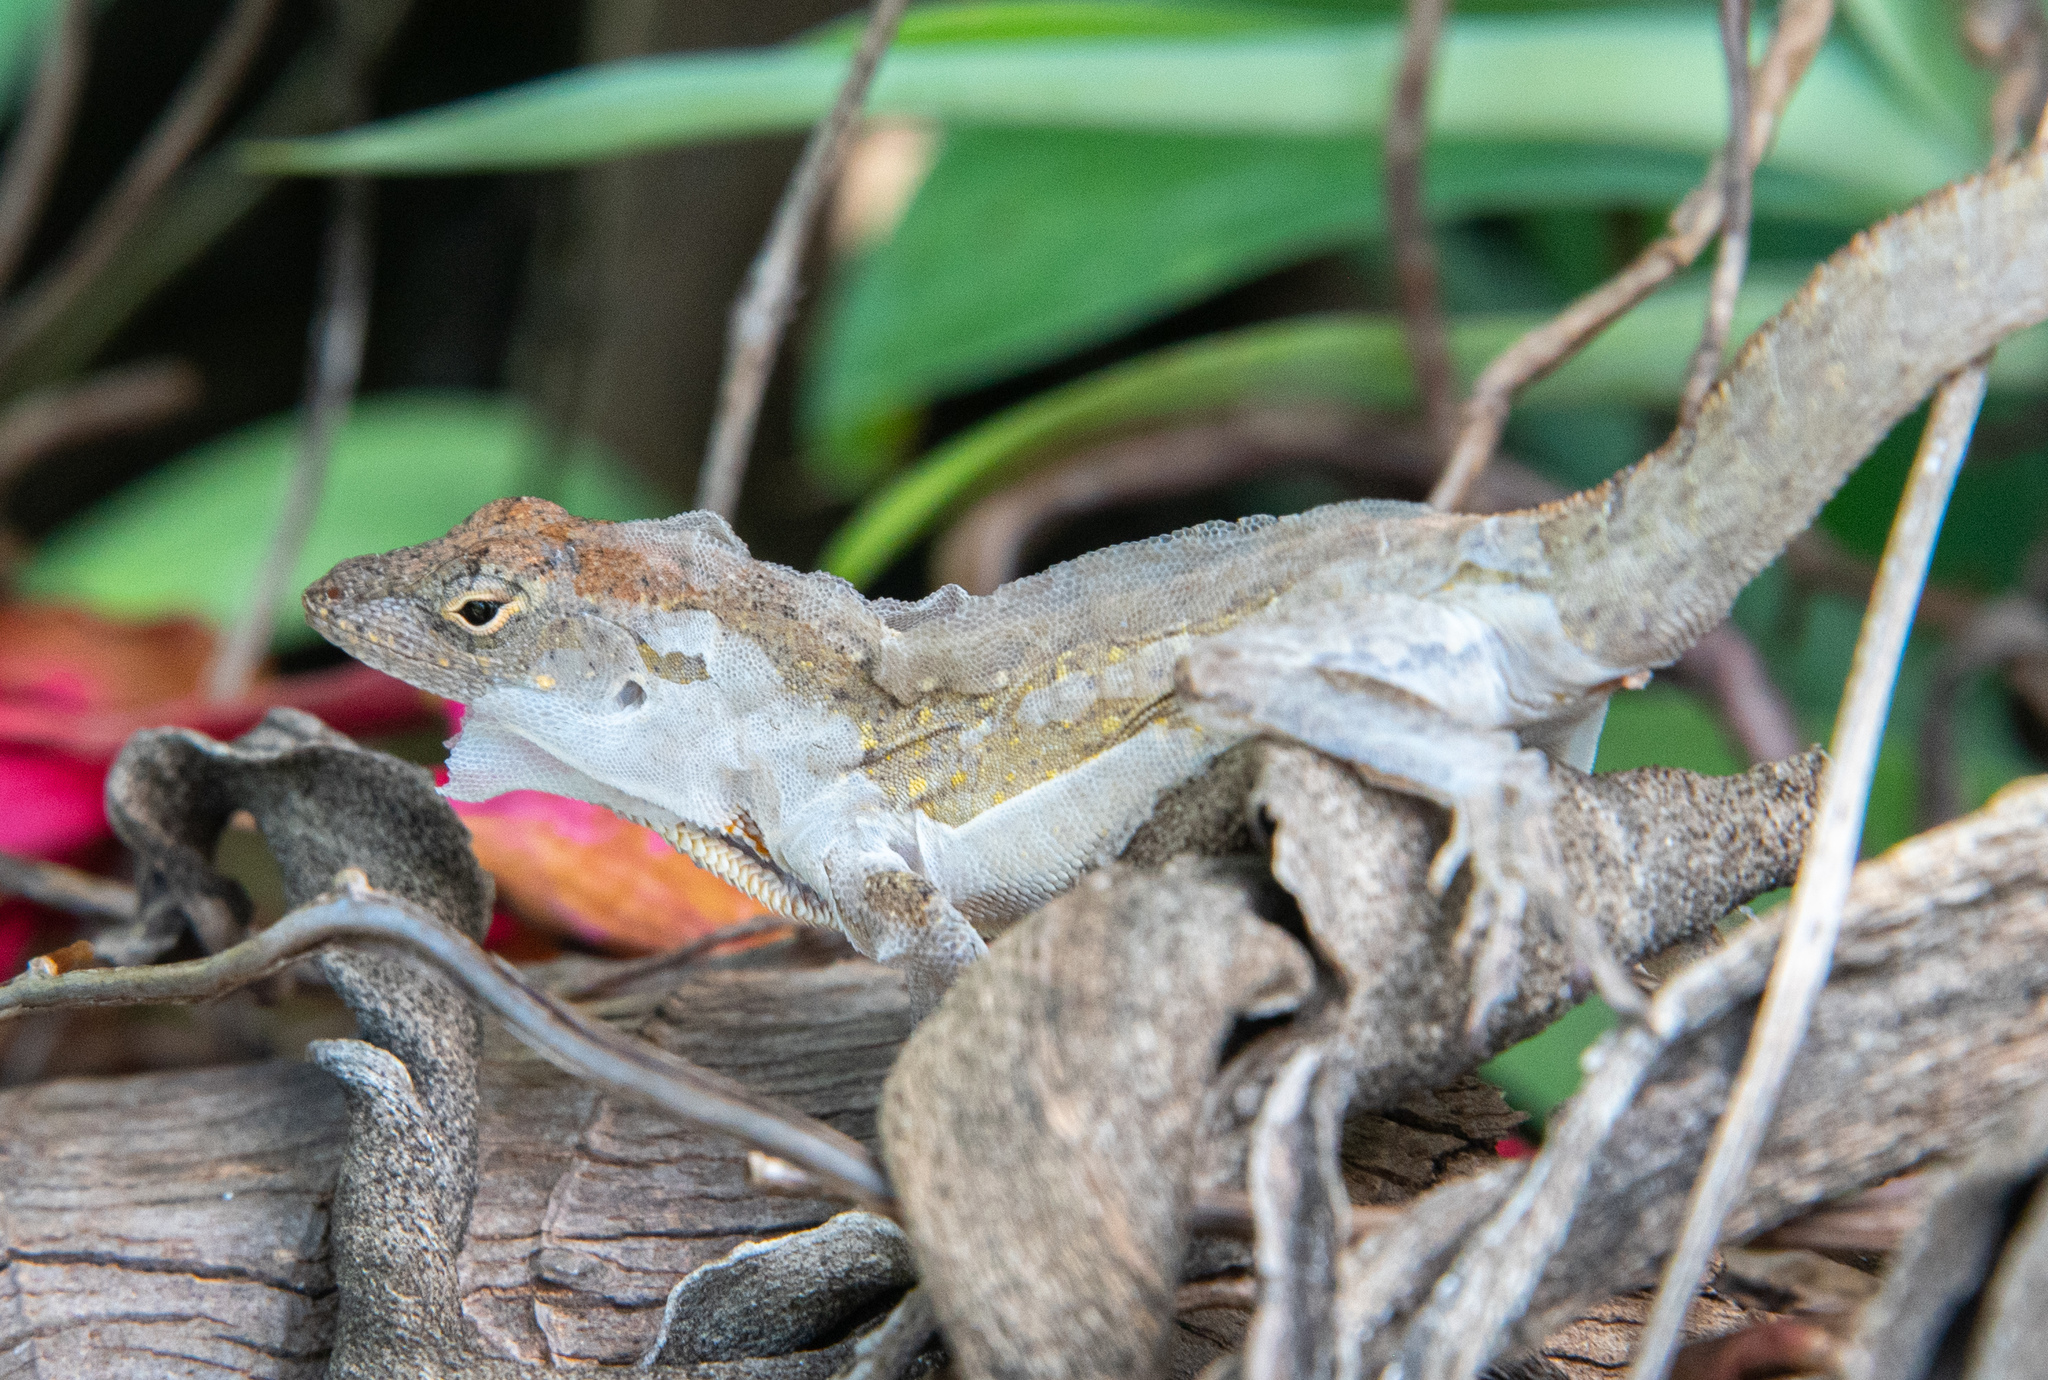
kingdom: Animalia
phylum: Chordata
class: Squamata
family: Dactyloidae
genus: Anolis
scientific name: Anolis sagrei
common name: Brown anole
